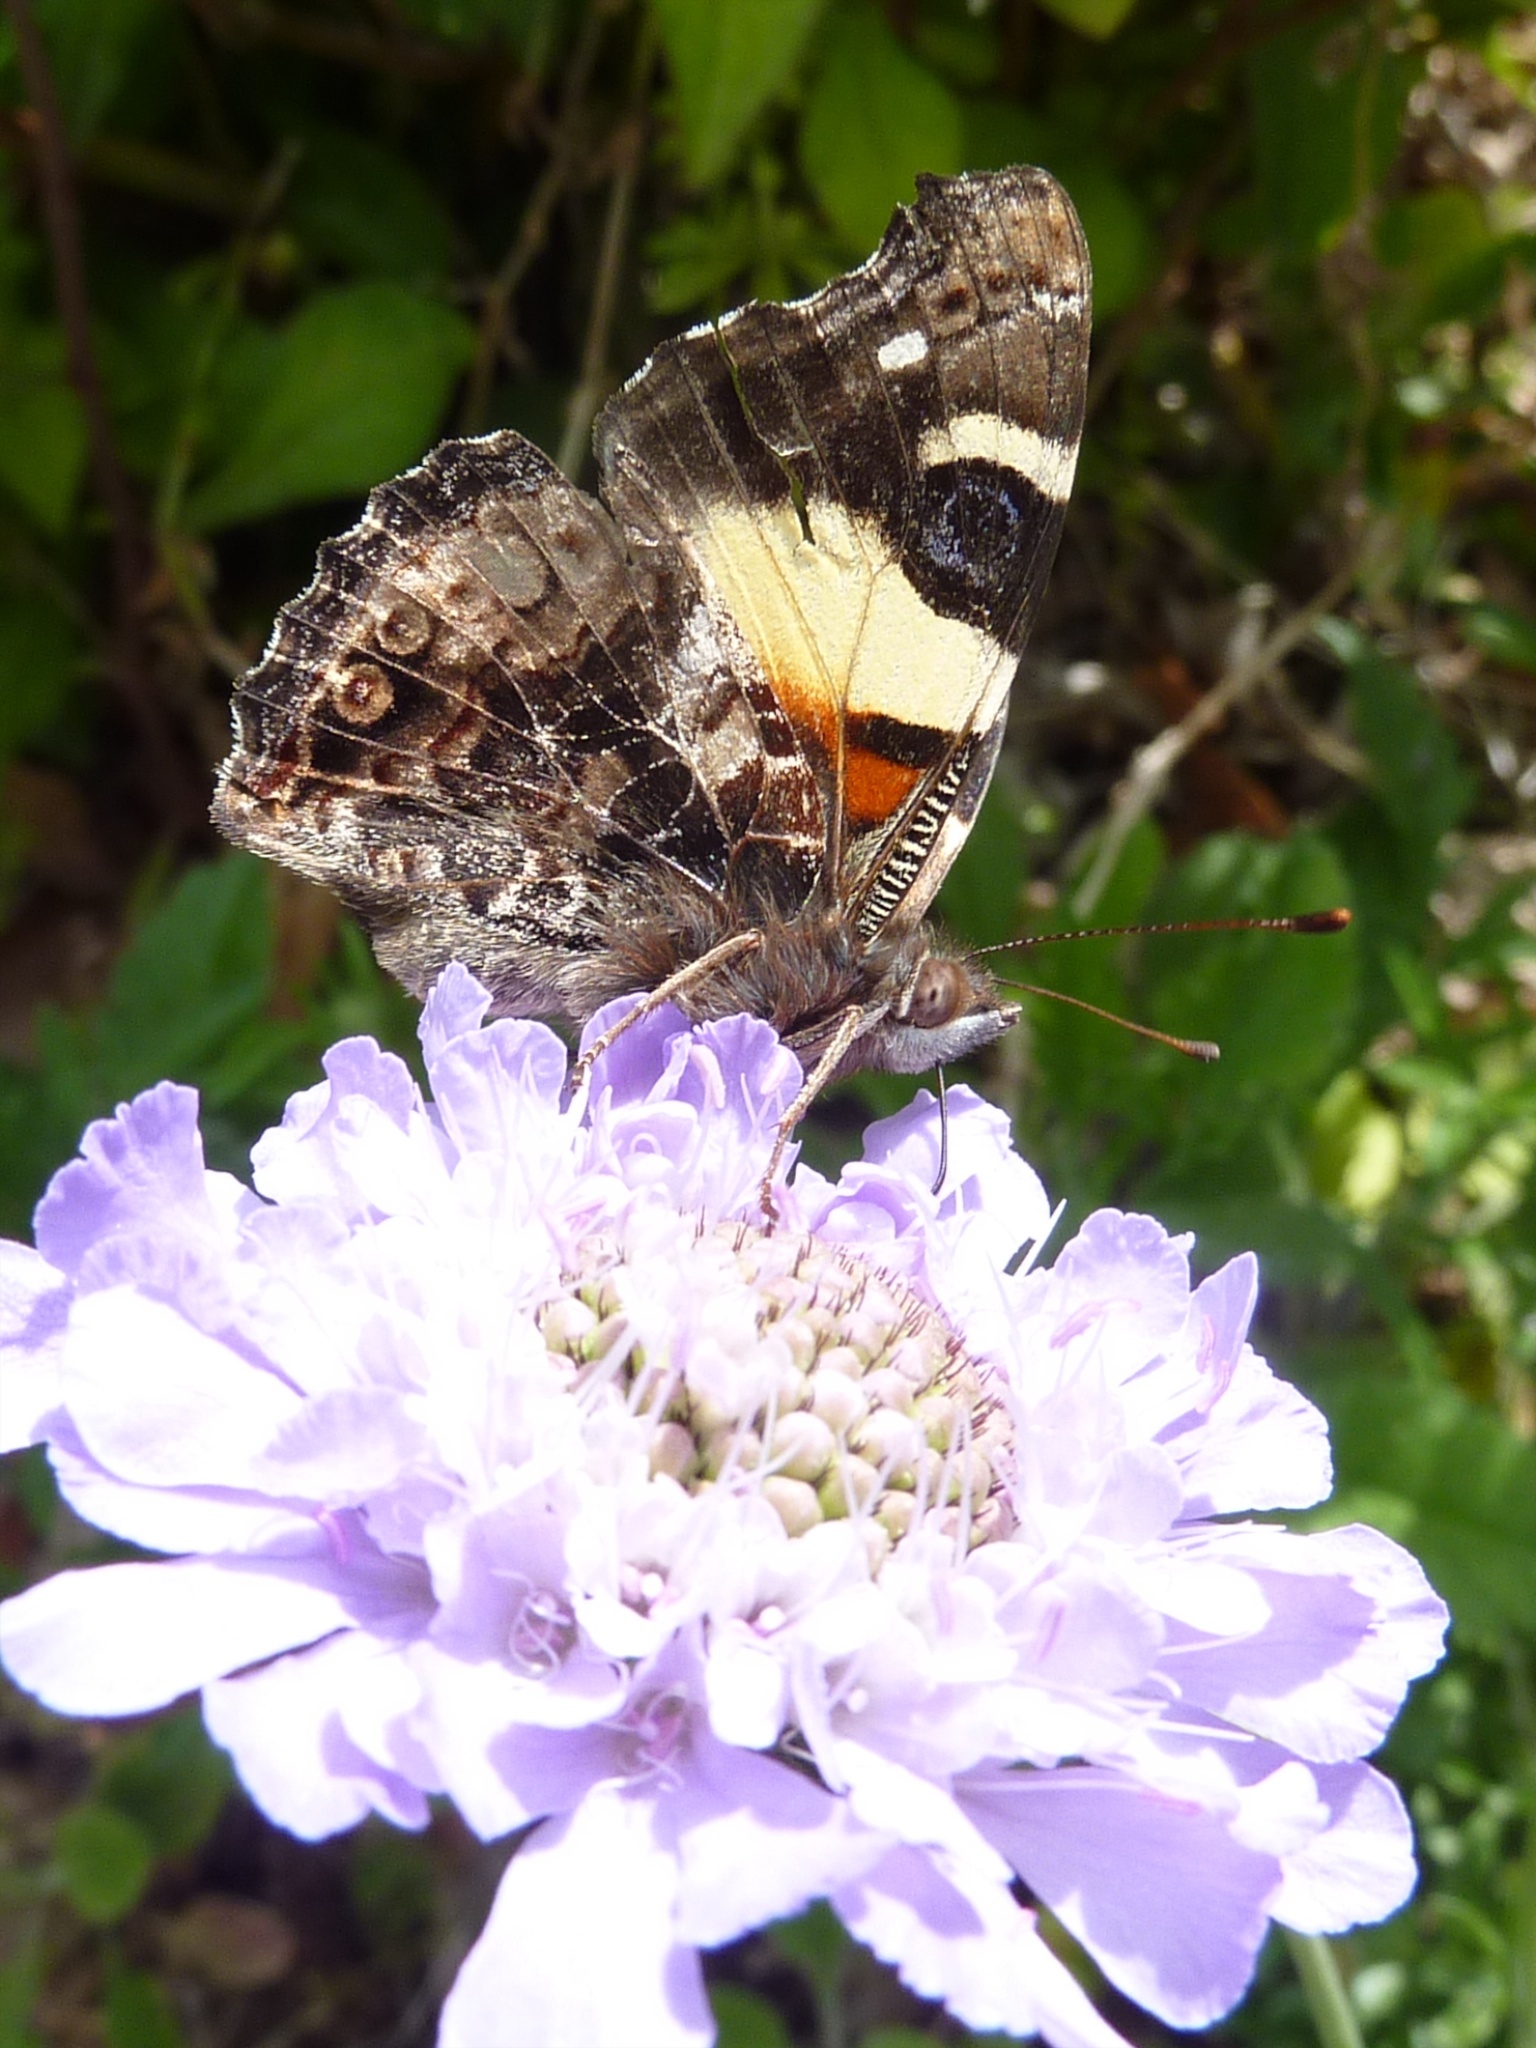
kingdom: Animalia
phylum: Arthropoda
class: Insecta
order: Lepidoptera
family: Nymphalidae
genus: Vanessa
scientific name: Vanessa itea
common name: Yellow admiral
